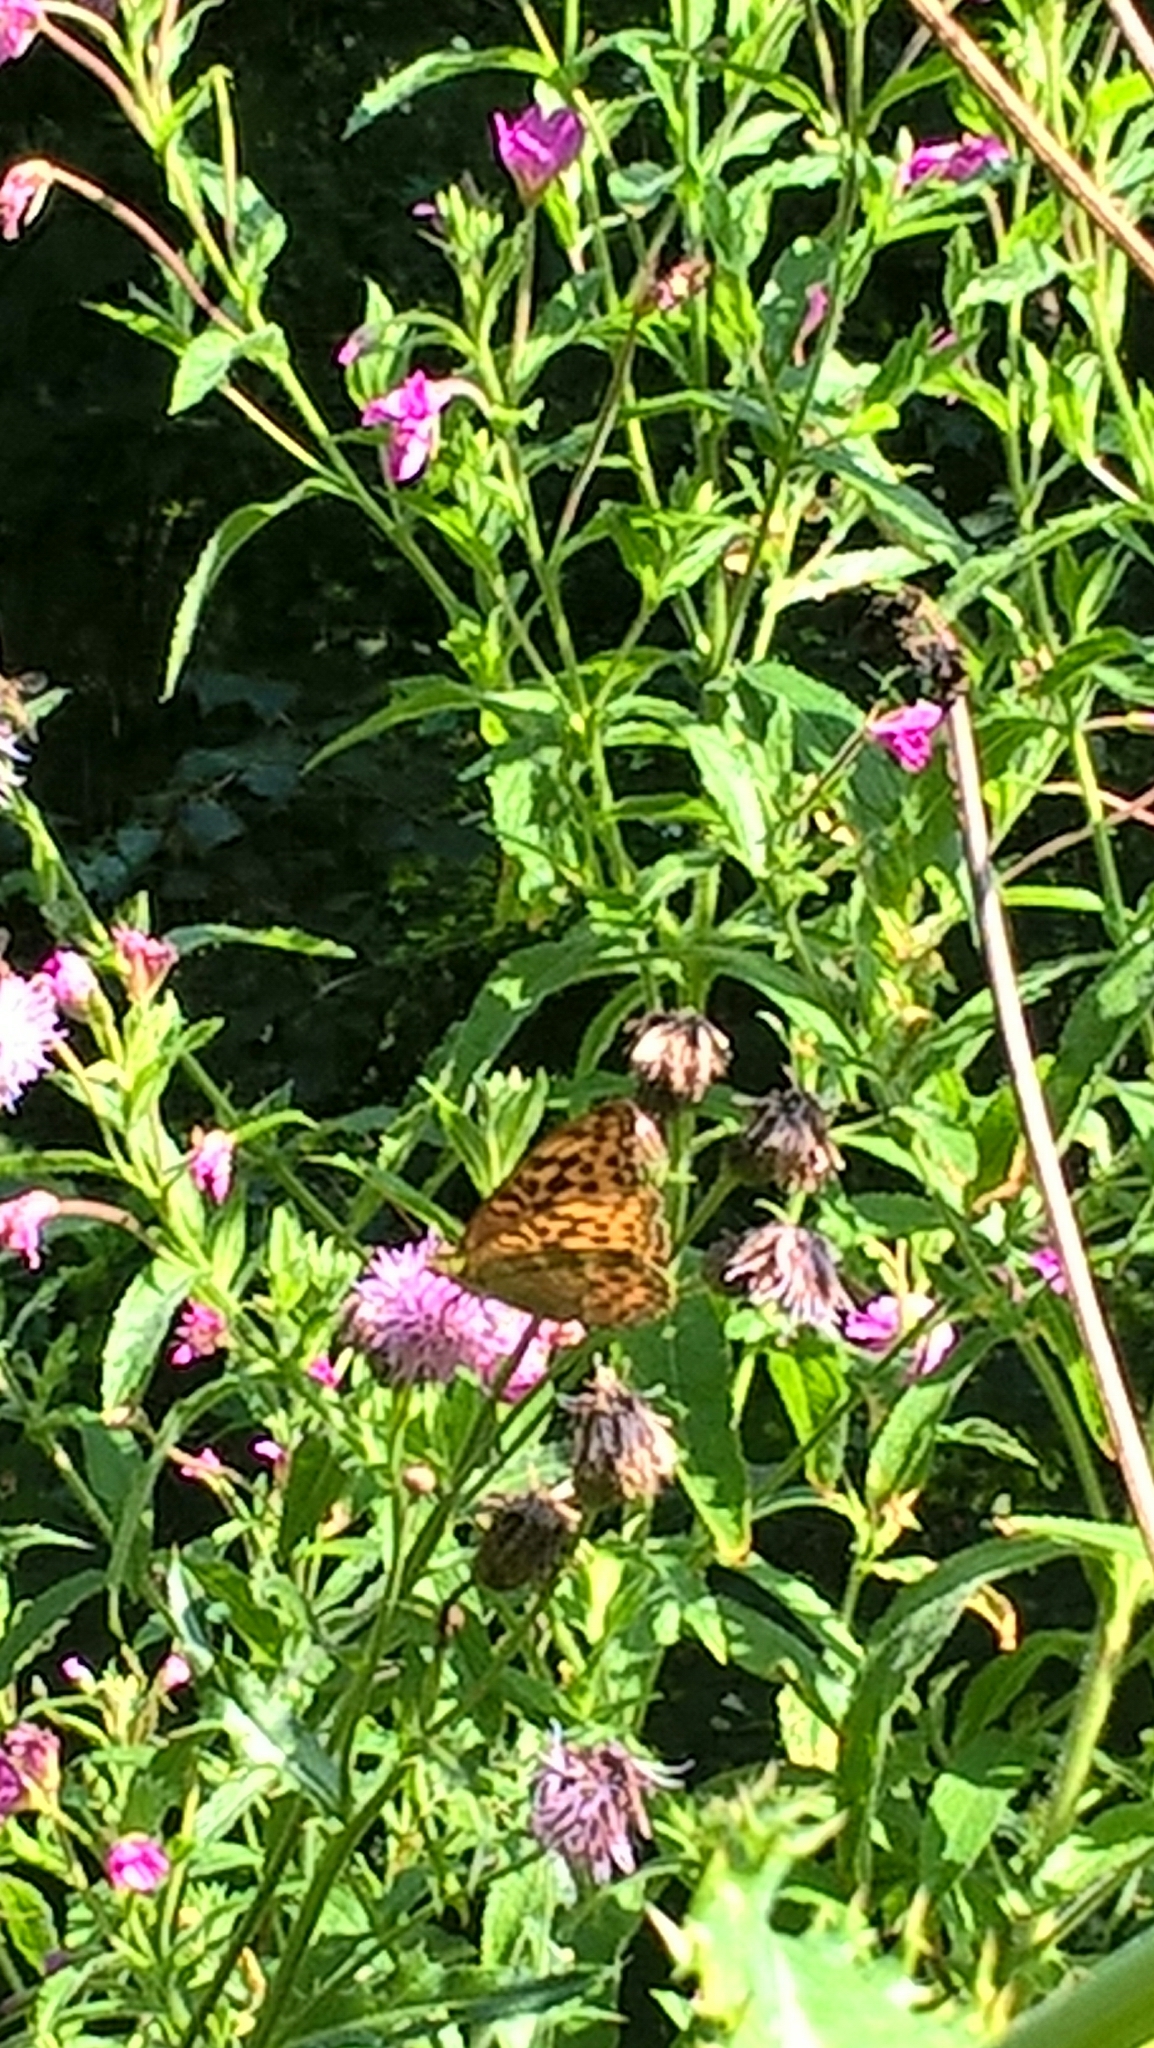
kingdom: Animalia
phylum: Arthropoda
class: Insecta
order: Lepidoptera
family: Nymphalidae
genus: Argynnis
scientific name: Argynnis paphia
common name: Silver-washed fritillary
